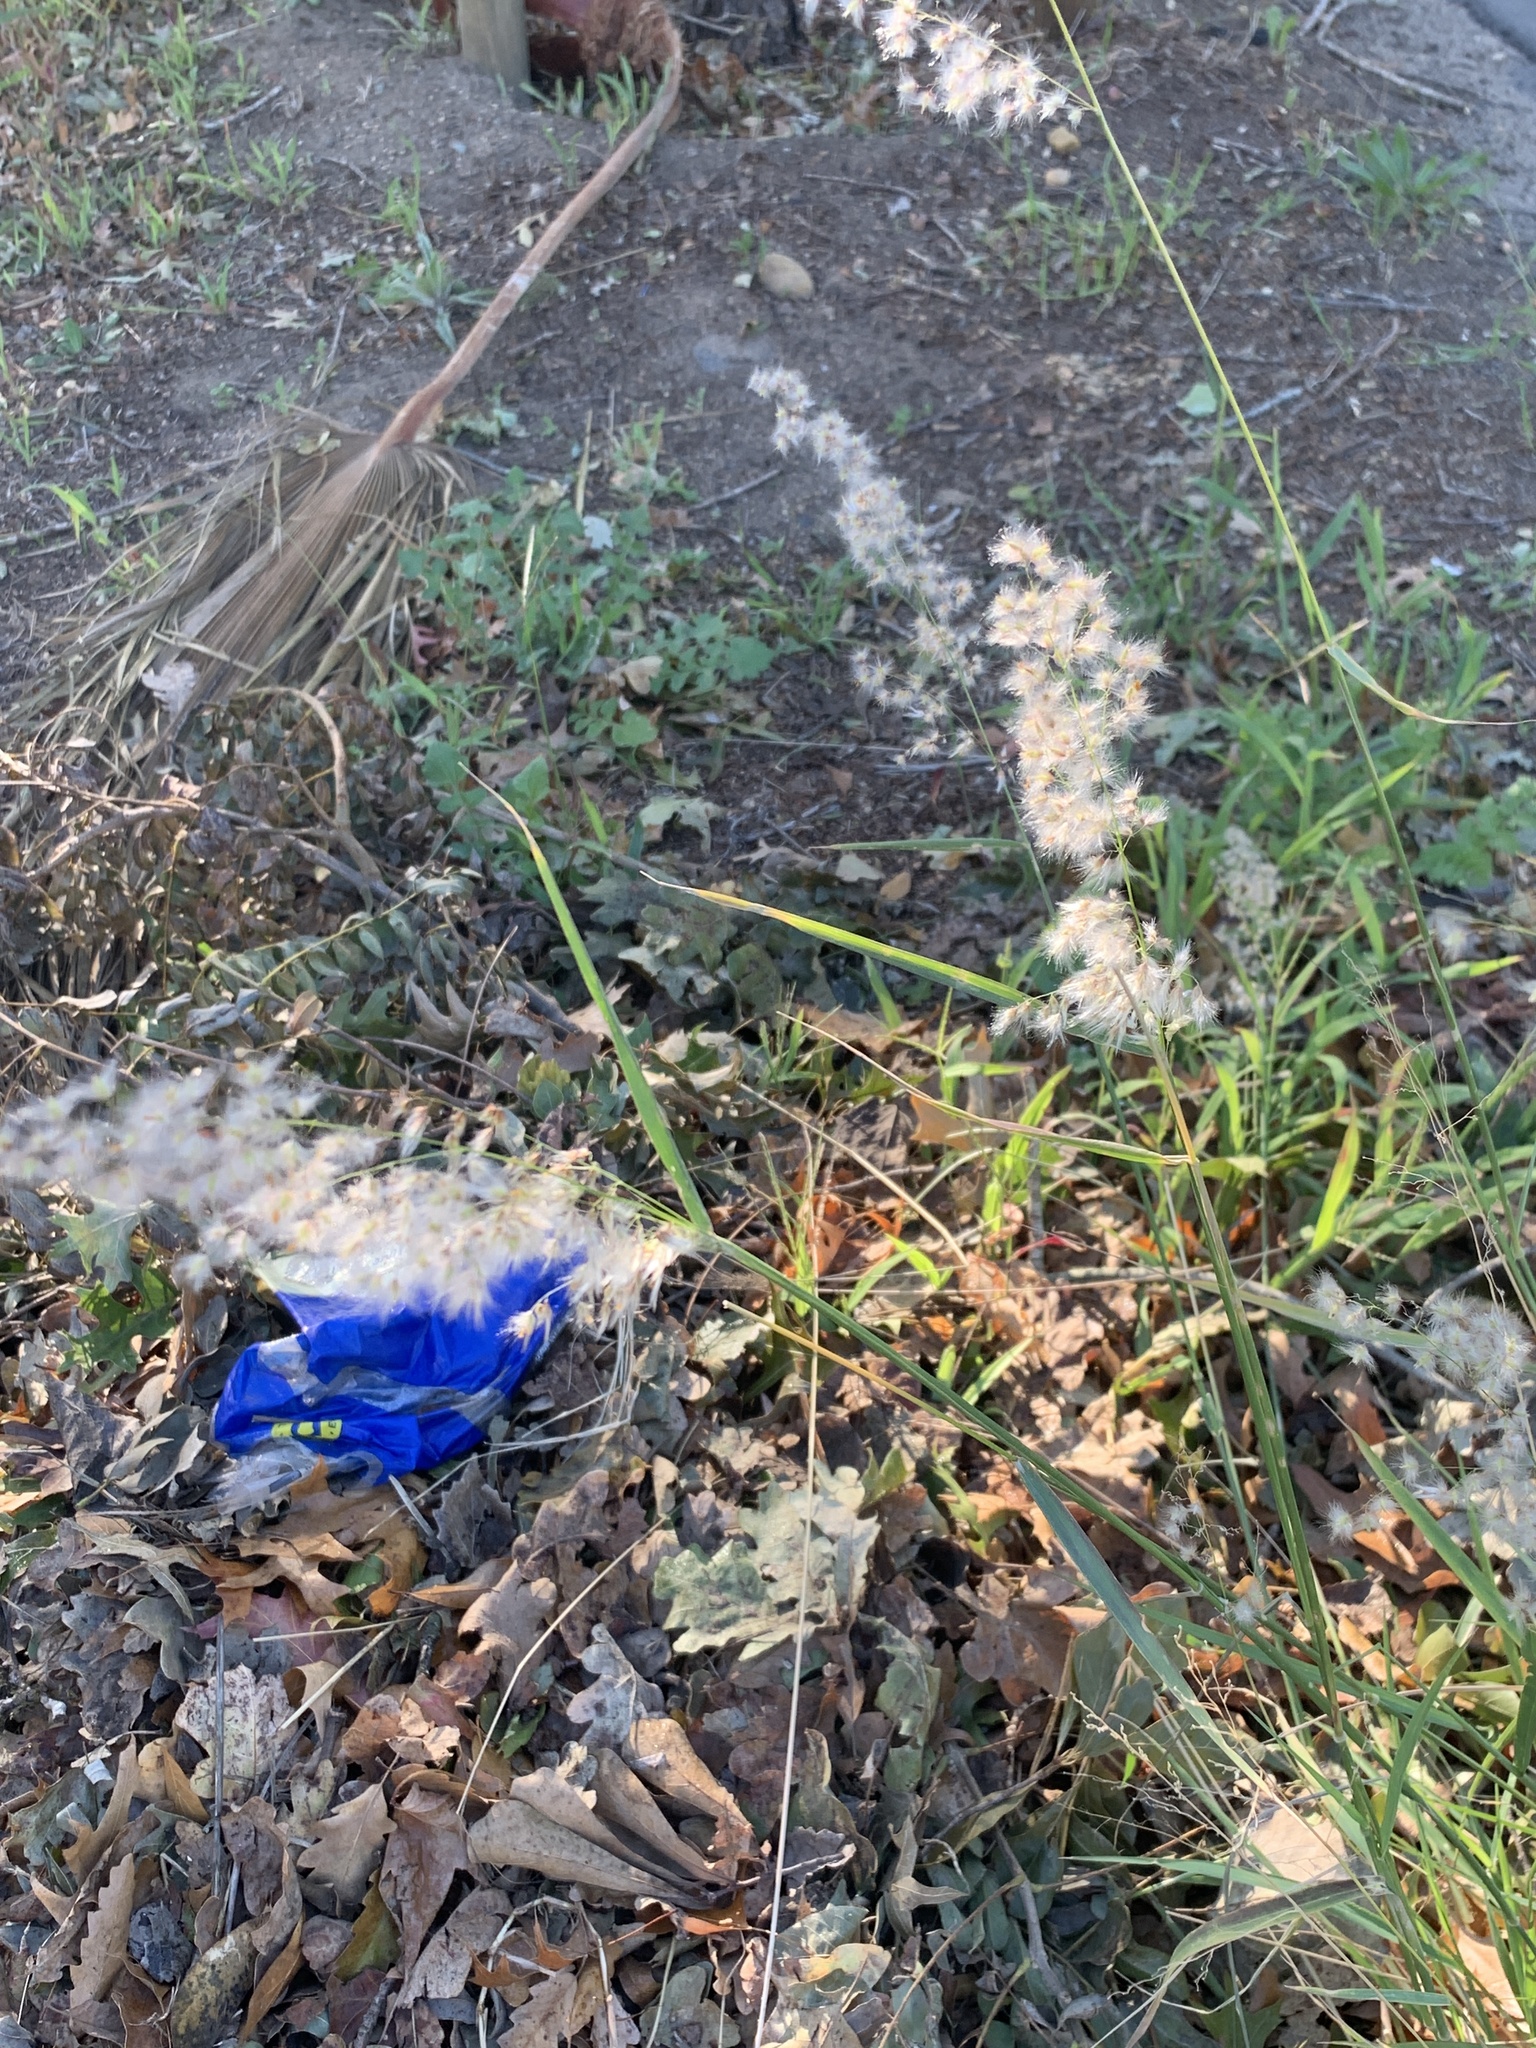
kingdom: Plantae
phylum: Tracheophyta
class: Liliopsida
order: Poales
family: Poaceae
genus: Melinis
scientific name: Melinis repens
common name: Rose natal grass
